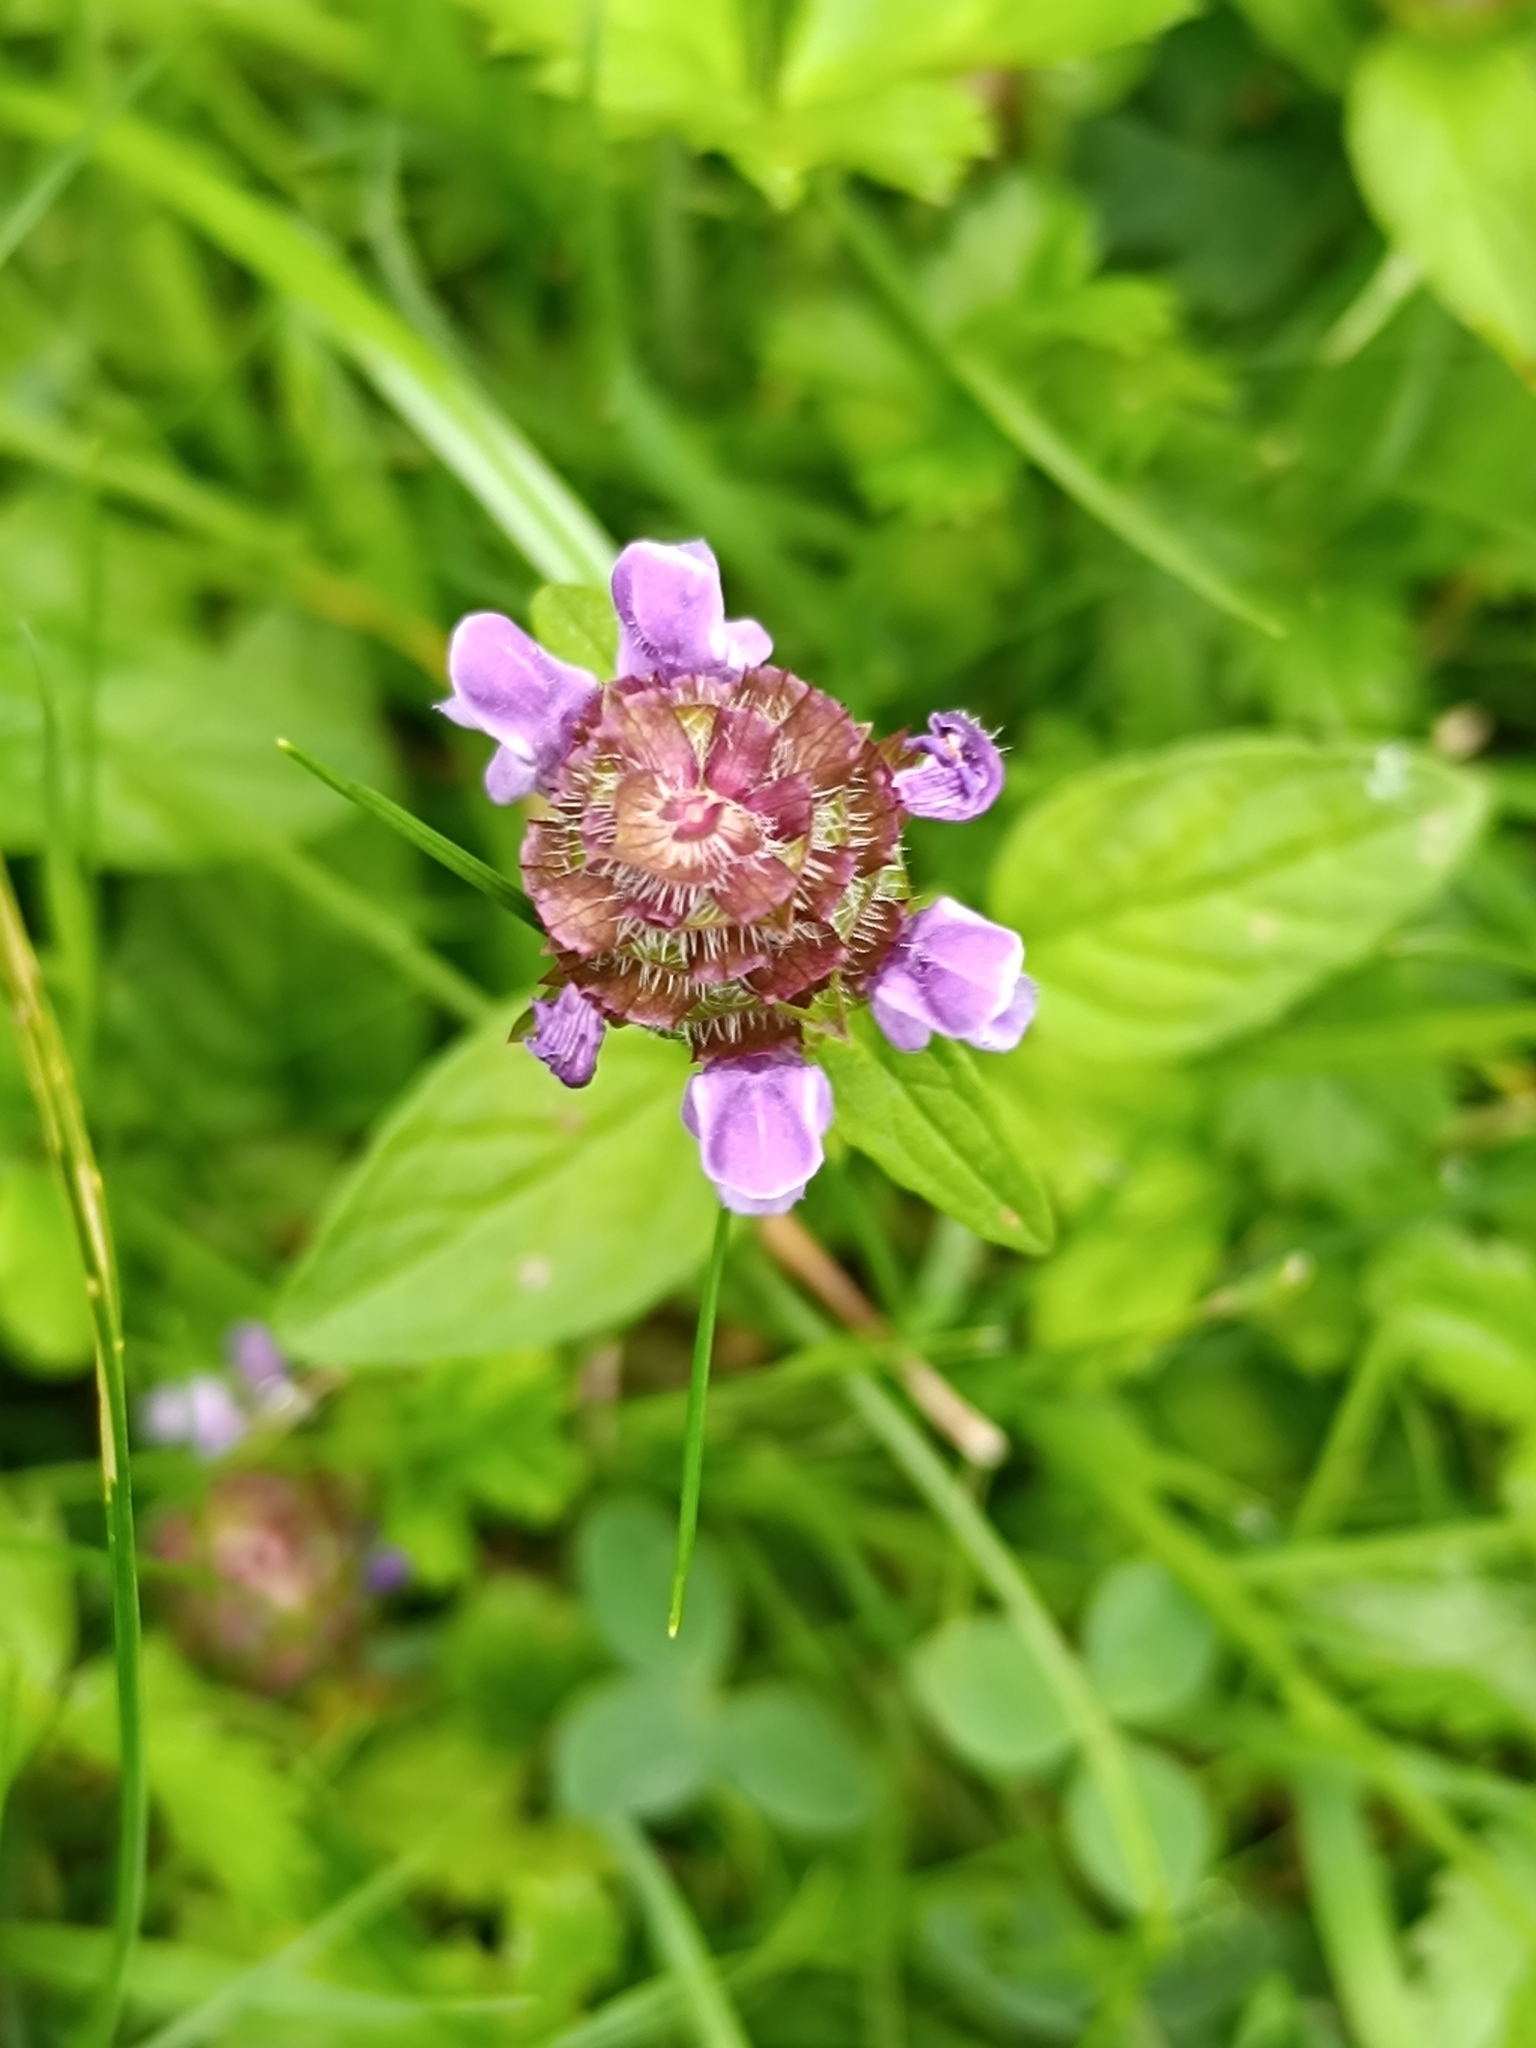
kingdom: Plantae
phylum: Tracheophyta
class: Magnoliopsida
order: Lamiales
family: Lamiaceae
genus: Prunella
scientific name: Prunella vulgaris
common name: Heal-all
